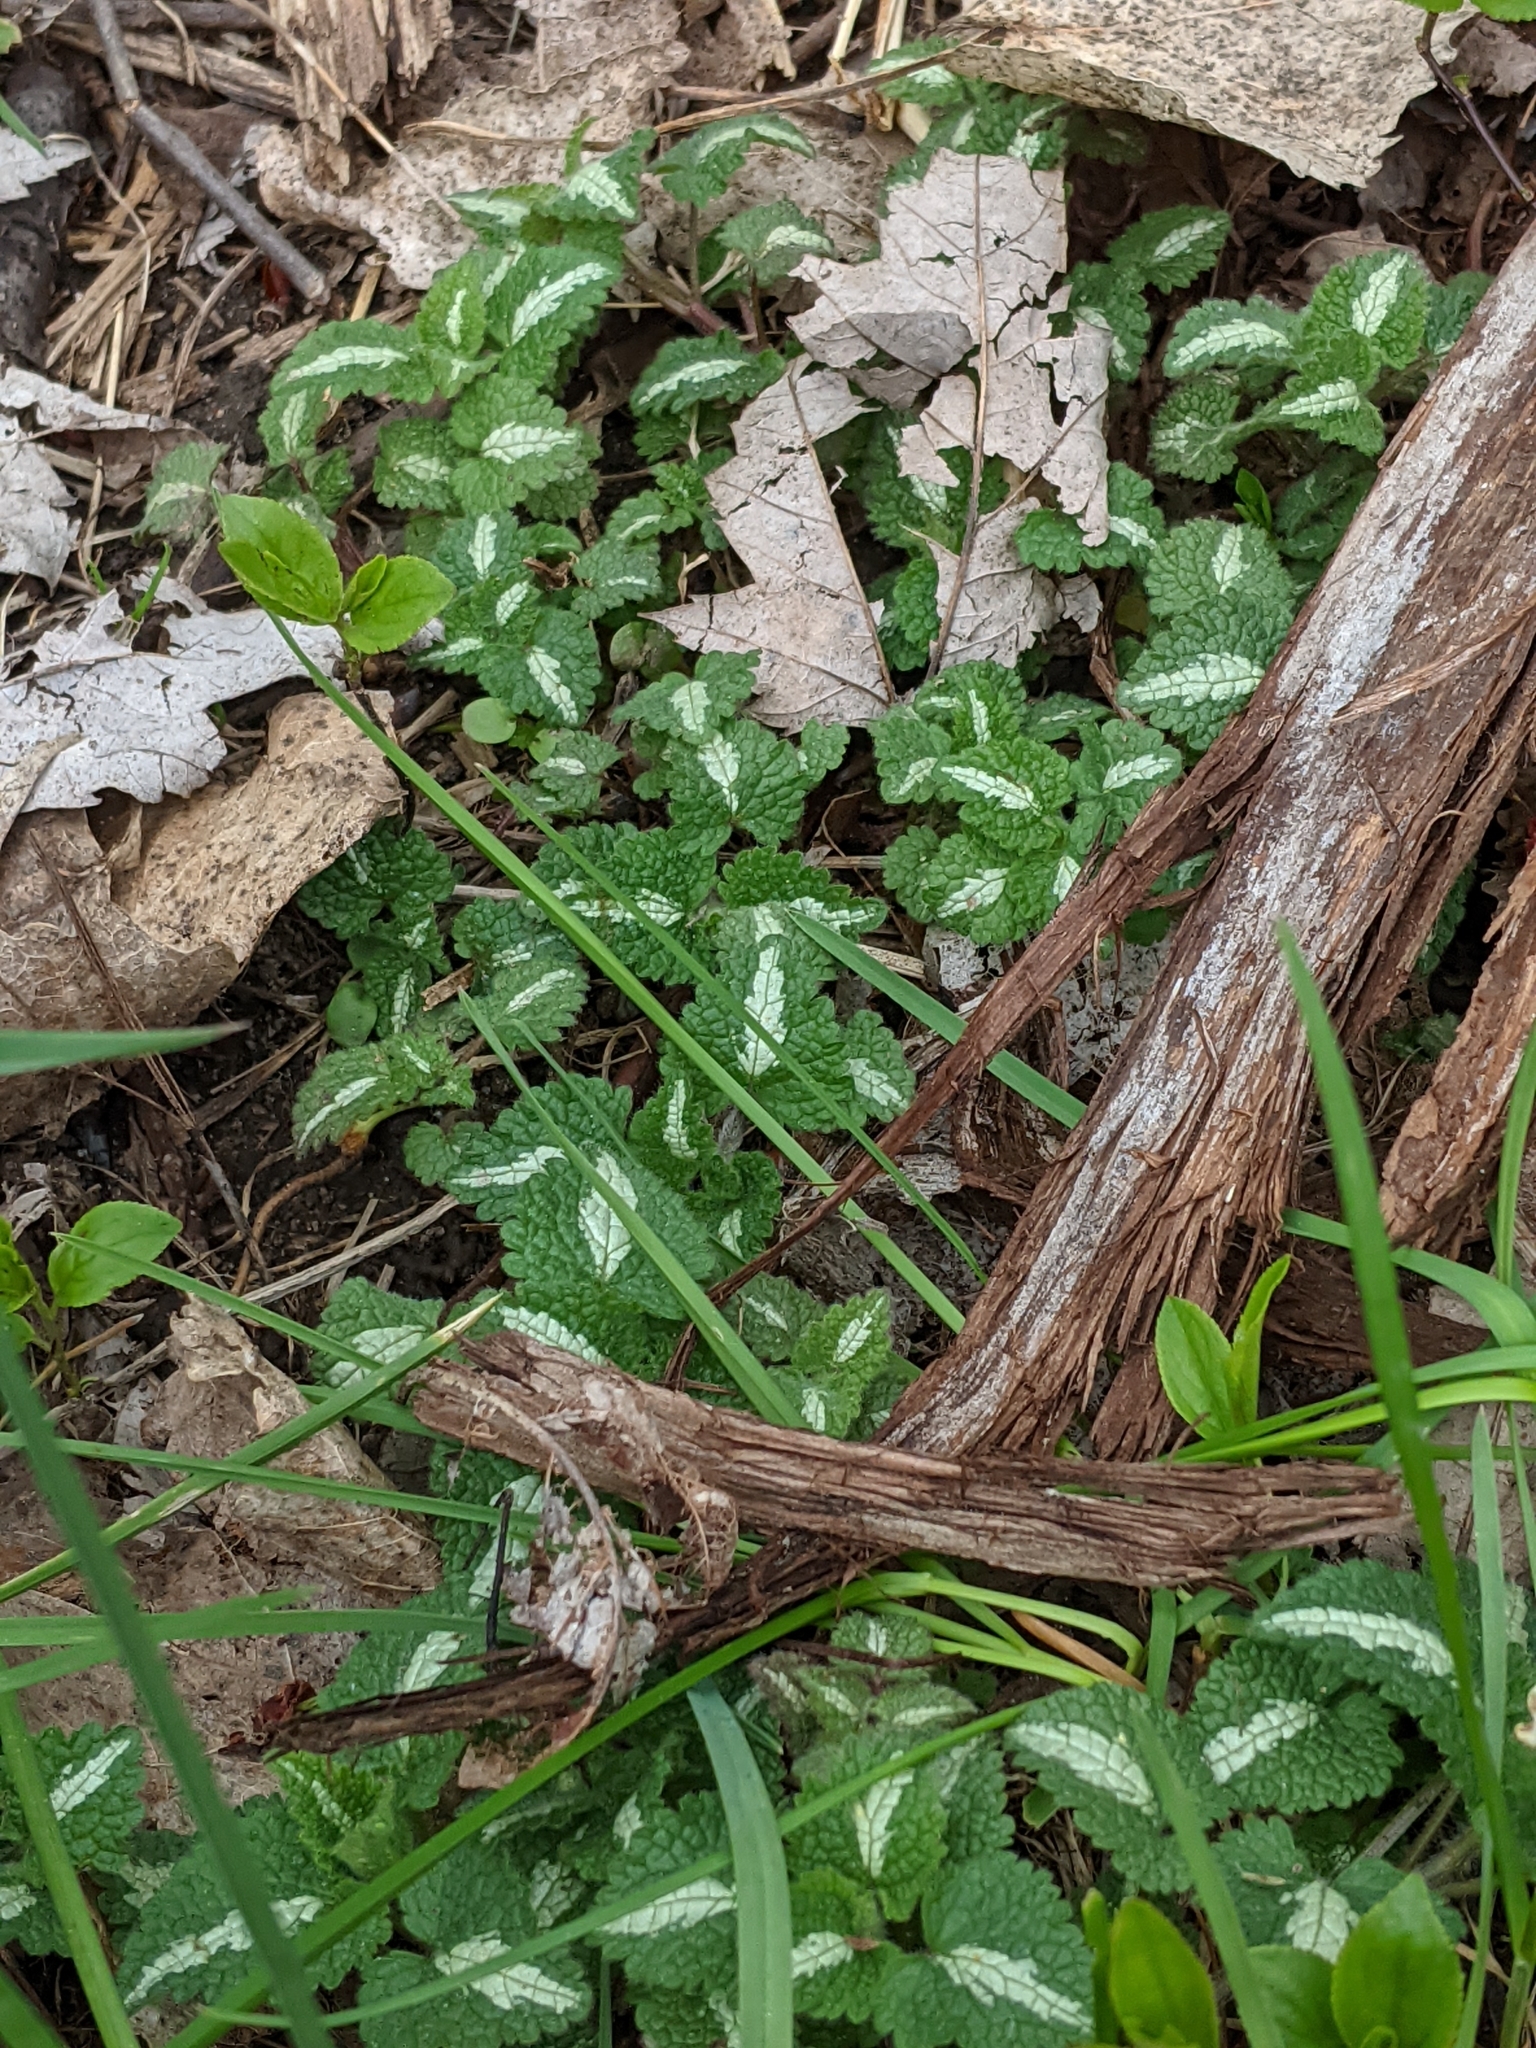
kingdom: Plantae
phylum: Tracheophyta
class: Magnoliopsida
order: Lamiales
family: Lamiaceae
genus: Lamium
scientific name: Lamium maculatum
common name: Spotted dead-nettle
